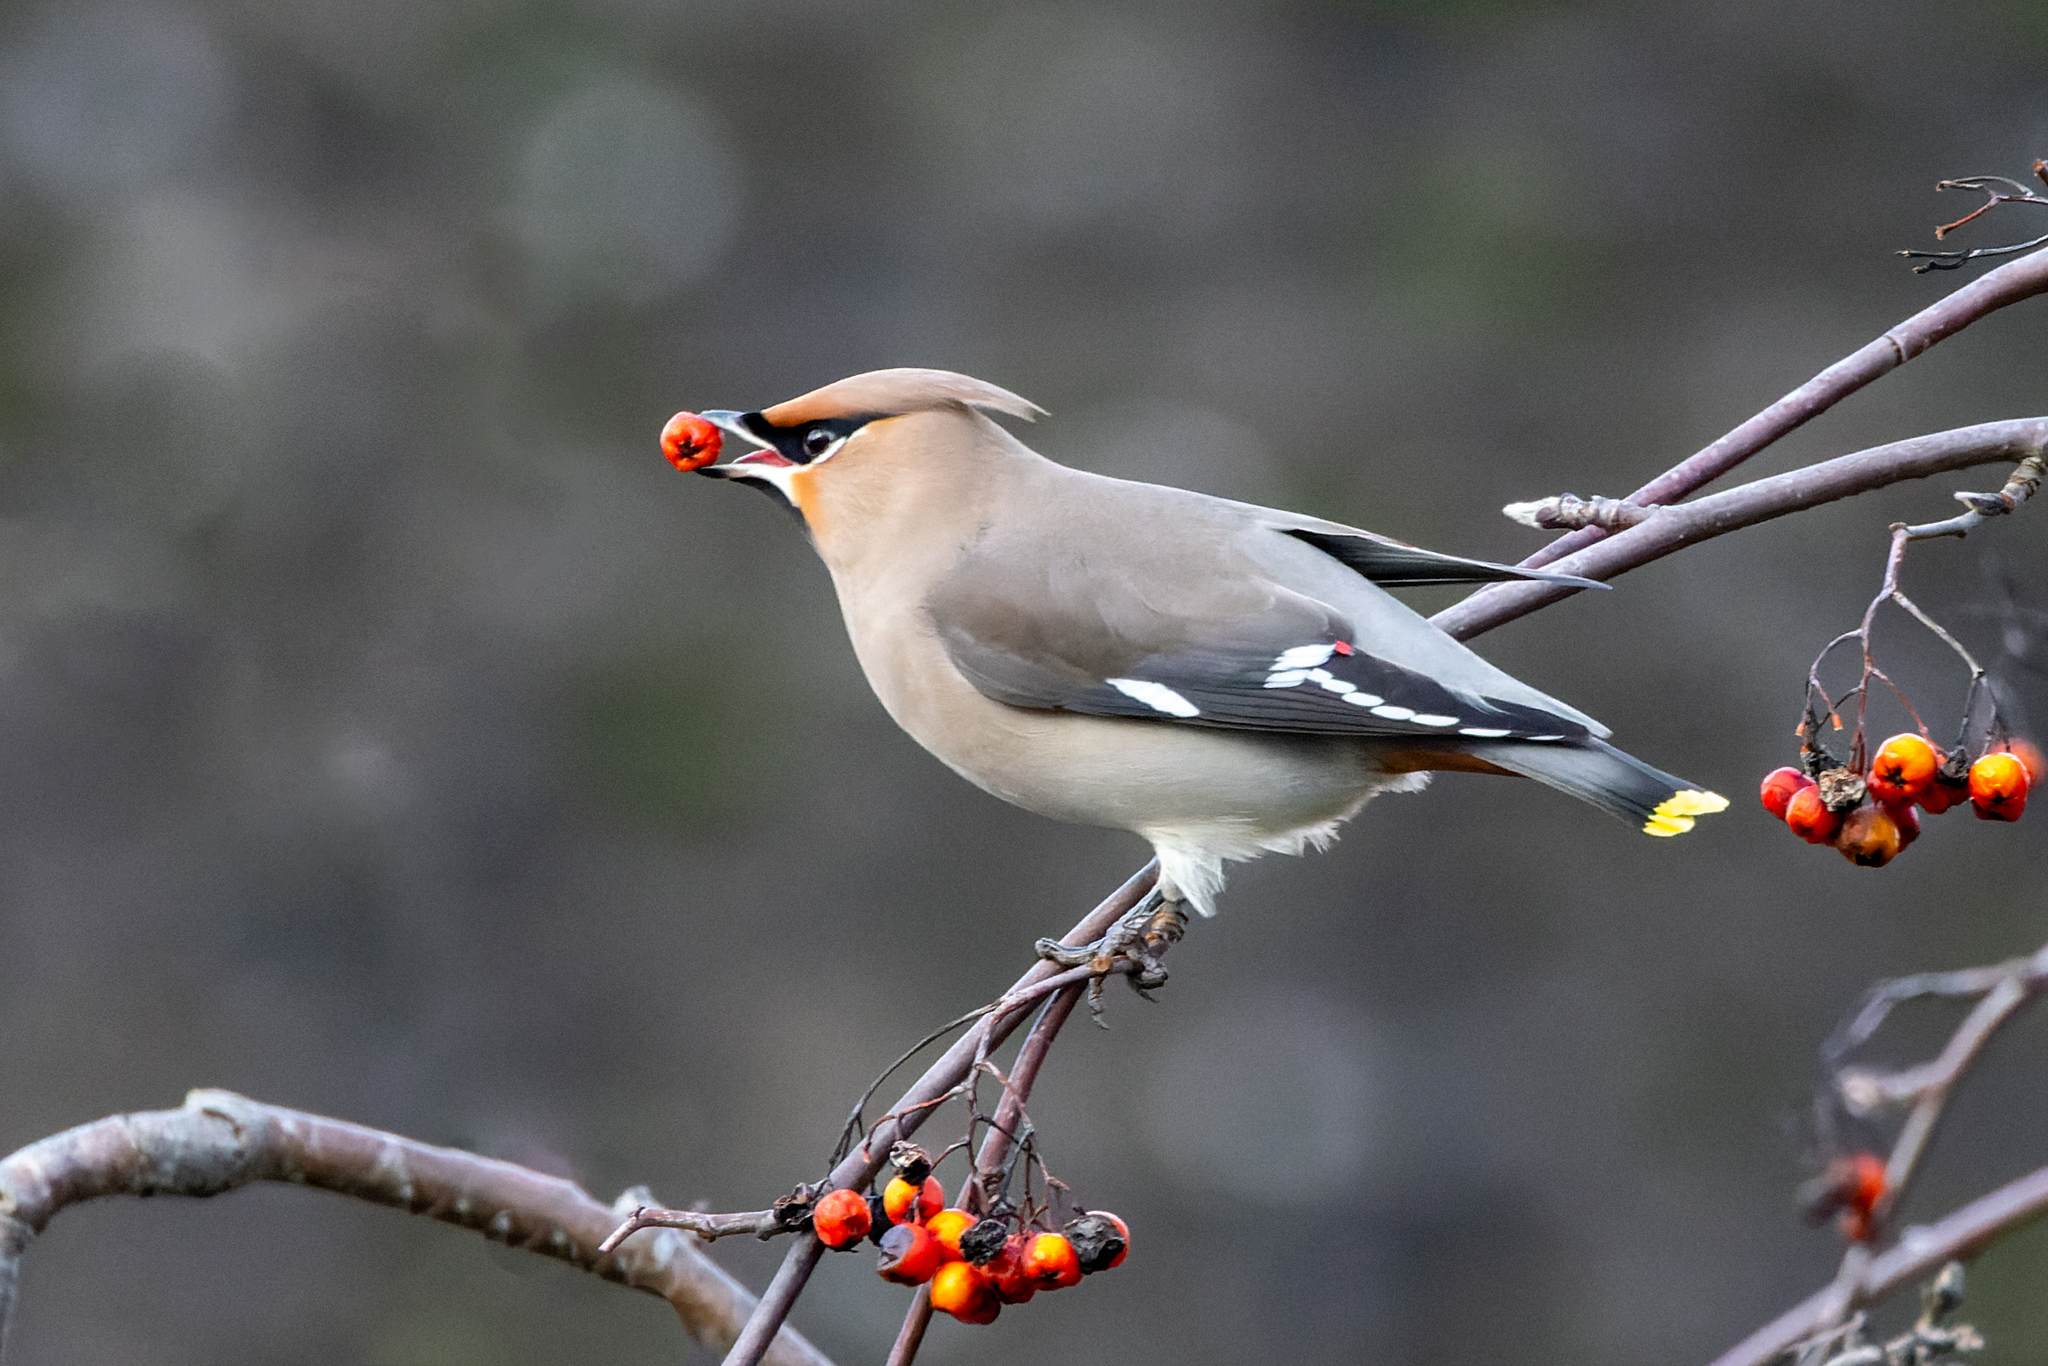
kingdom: Animalia
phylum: Chordata
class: Aves
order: Passeriformes
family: Bombycillidae
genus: Bombycilla
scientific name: Bombycilla garrulus
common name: Bohemian waxwing
